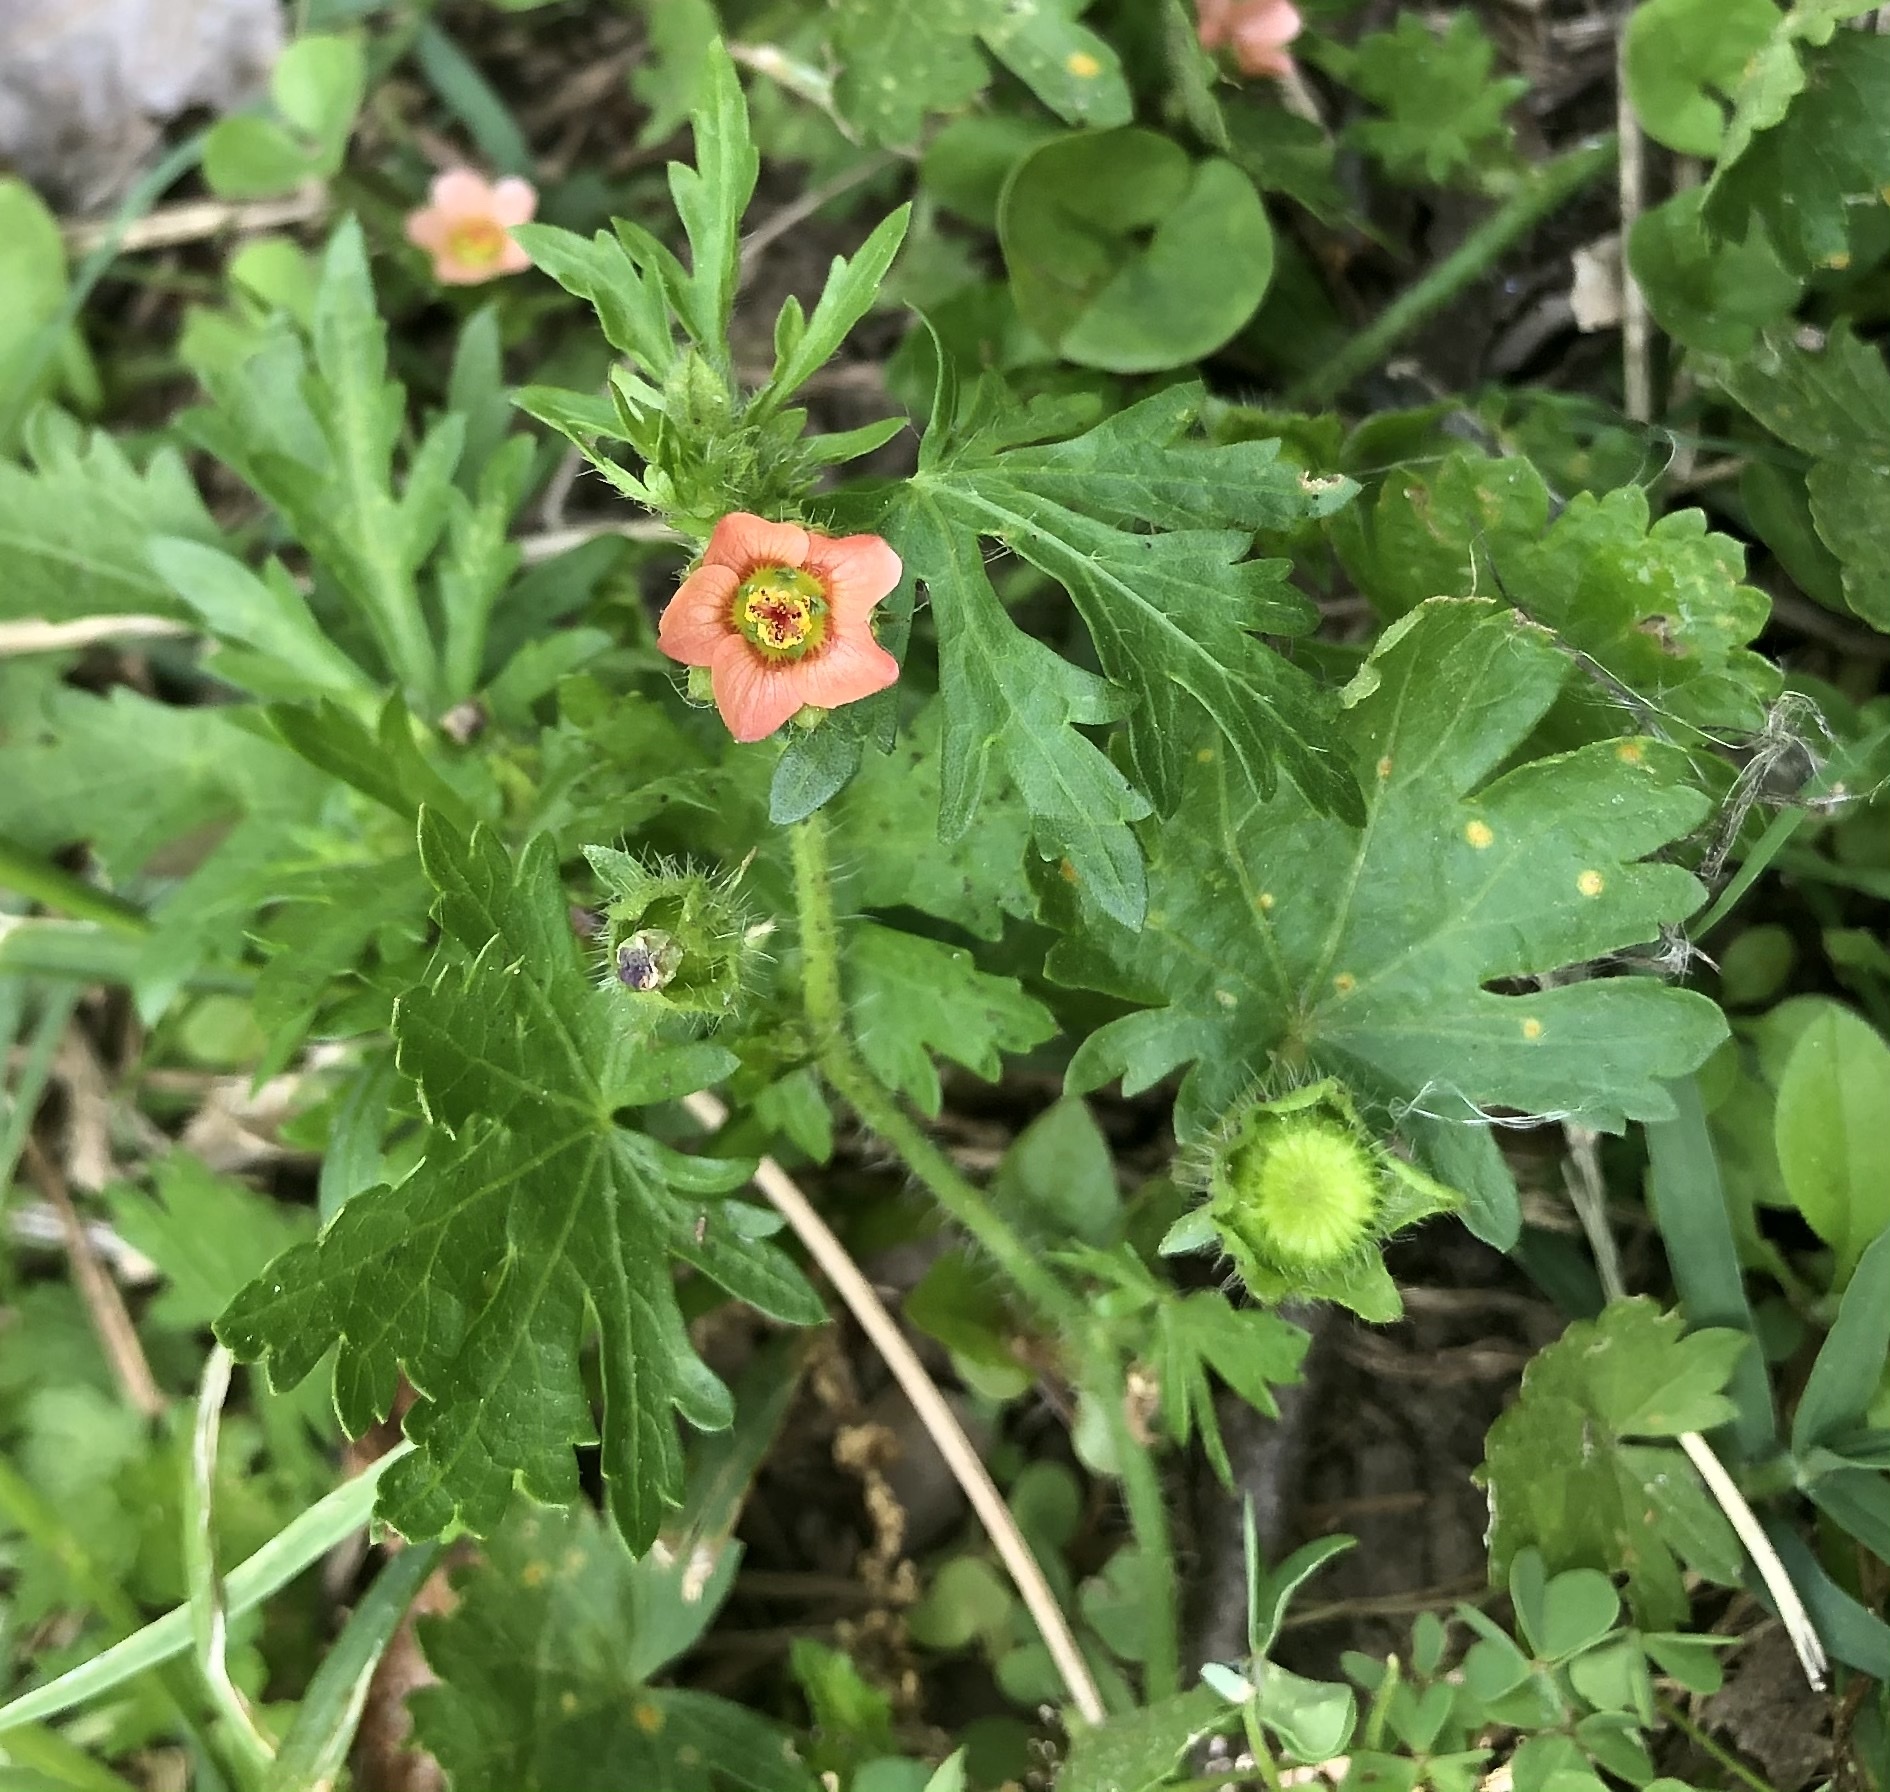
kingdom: Plantae
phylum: Tracheophyta
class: Magnoliopsida
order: Malvales
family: Malvaceae
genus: Modiola
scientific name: Modiola caroliniana
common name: Carolina bristlemallow
